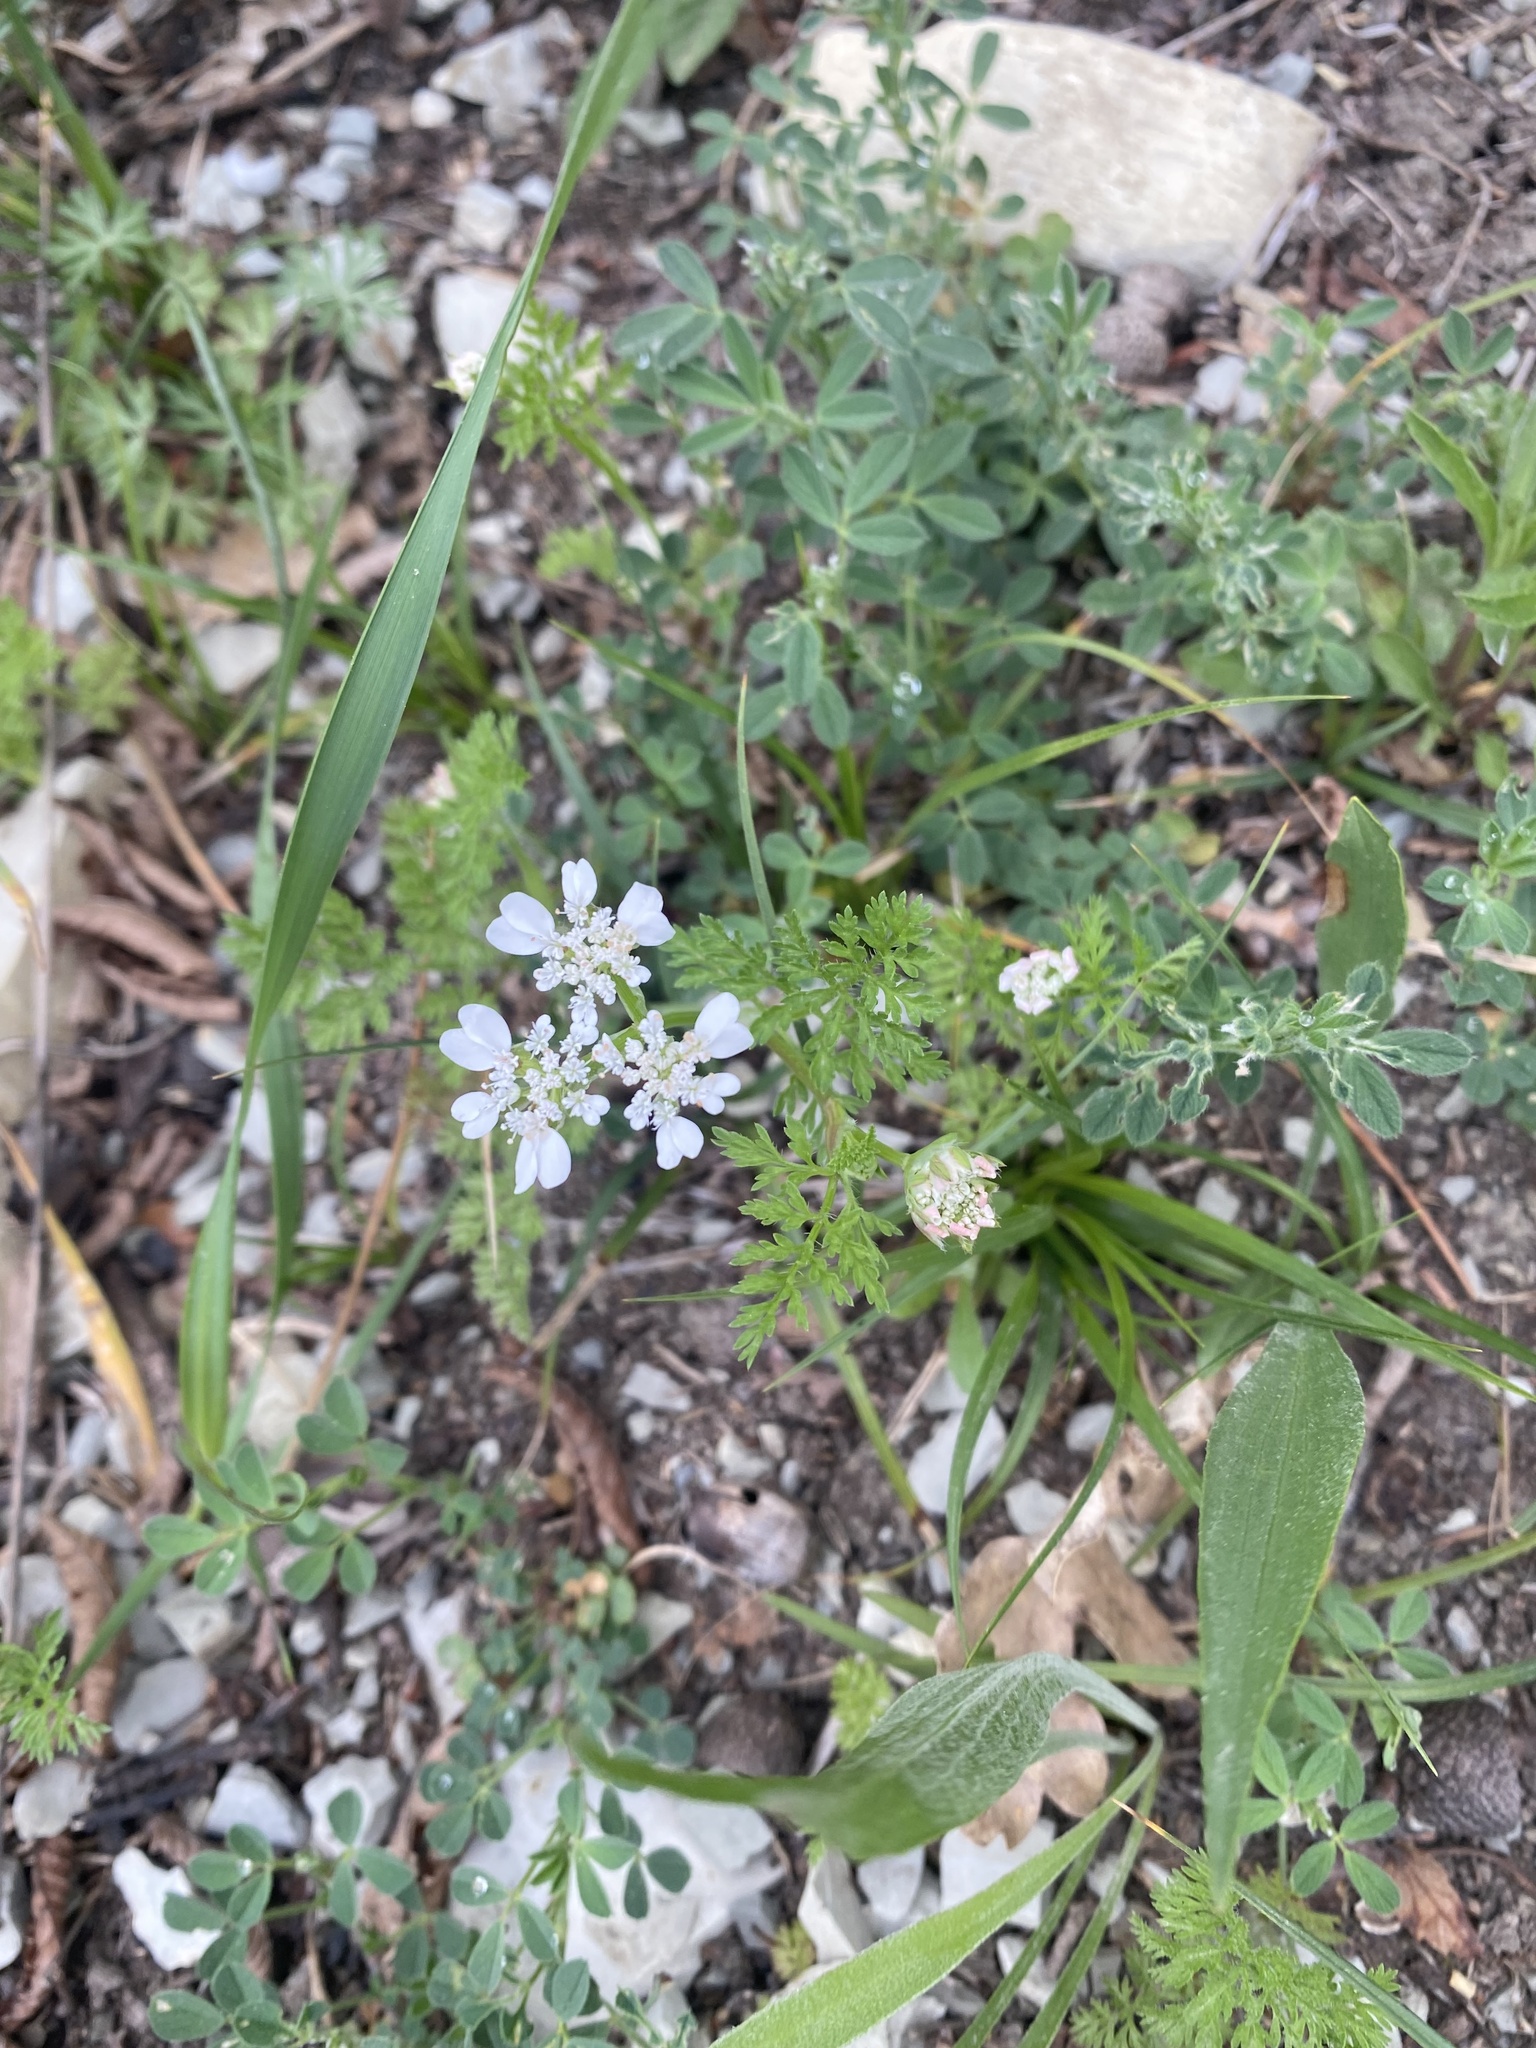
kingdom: Plantae
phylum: Tracheophyta
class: Magnoliopsida
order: Apiales
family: Apiaceae
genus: Orlaya
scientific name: Orlaya daucoides
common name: Flat-fruit orlaya
